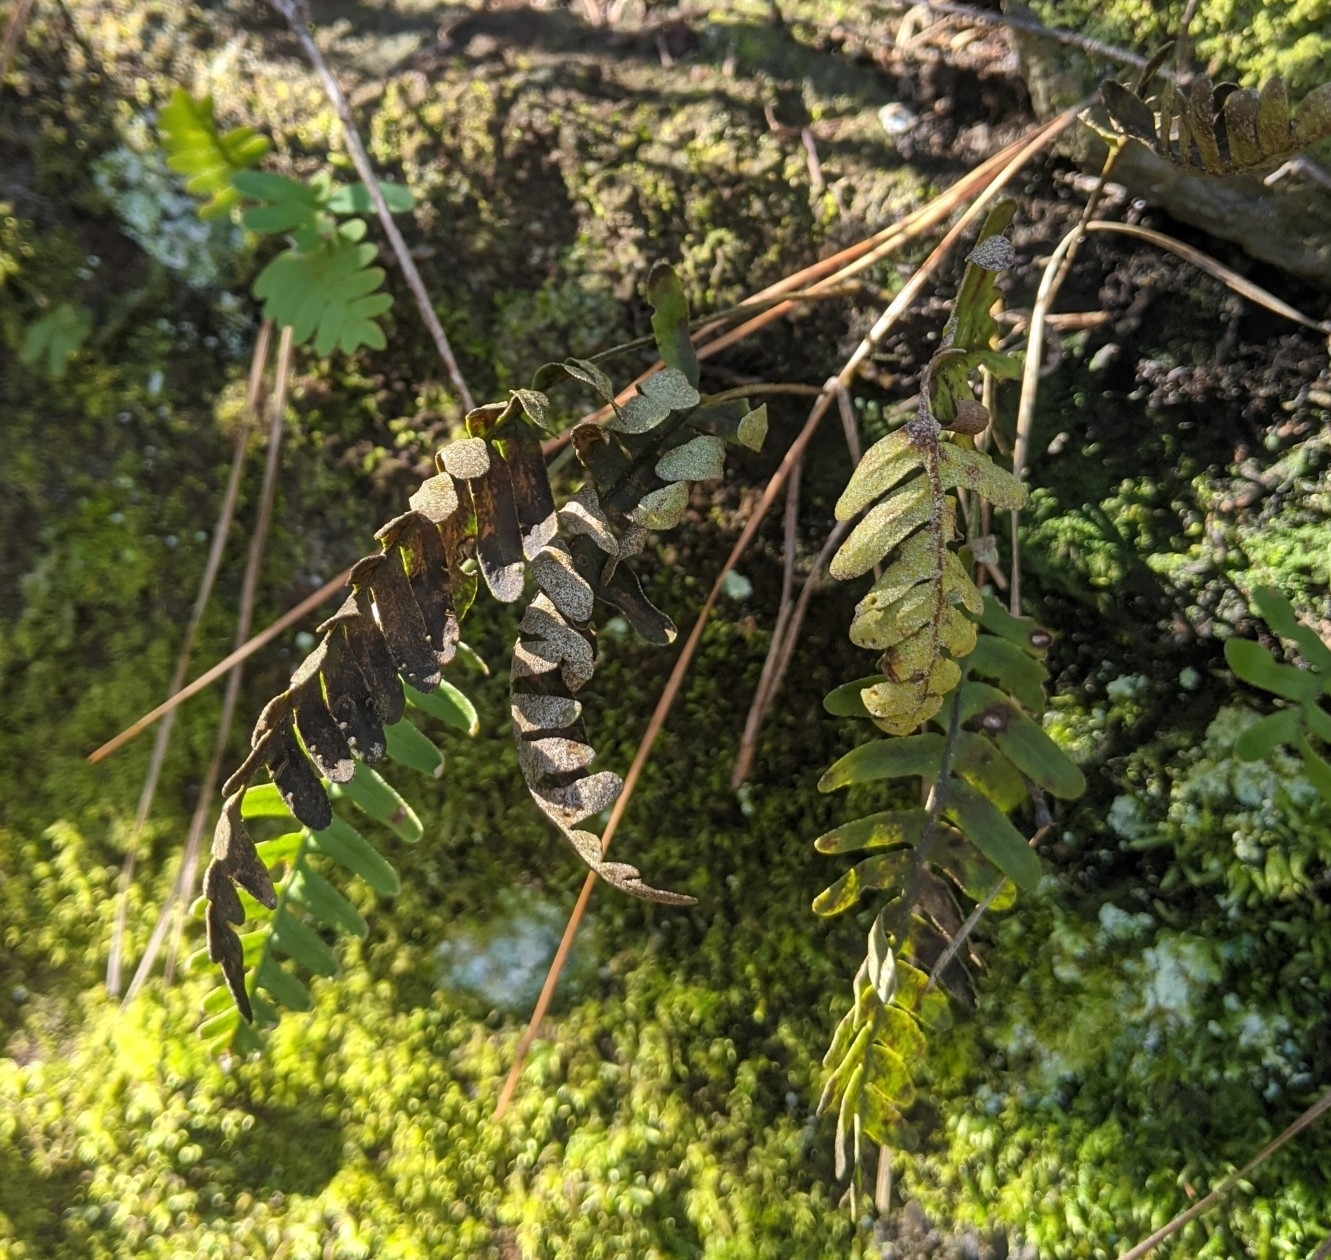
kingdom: Plantae
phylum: Tracheophyta
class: Polypodiopsida
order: Polypodiales
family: Polypodiaceae
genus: Pleopeltis
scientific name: Pleopeltis michauxiana
